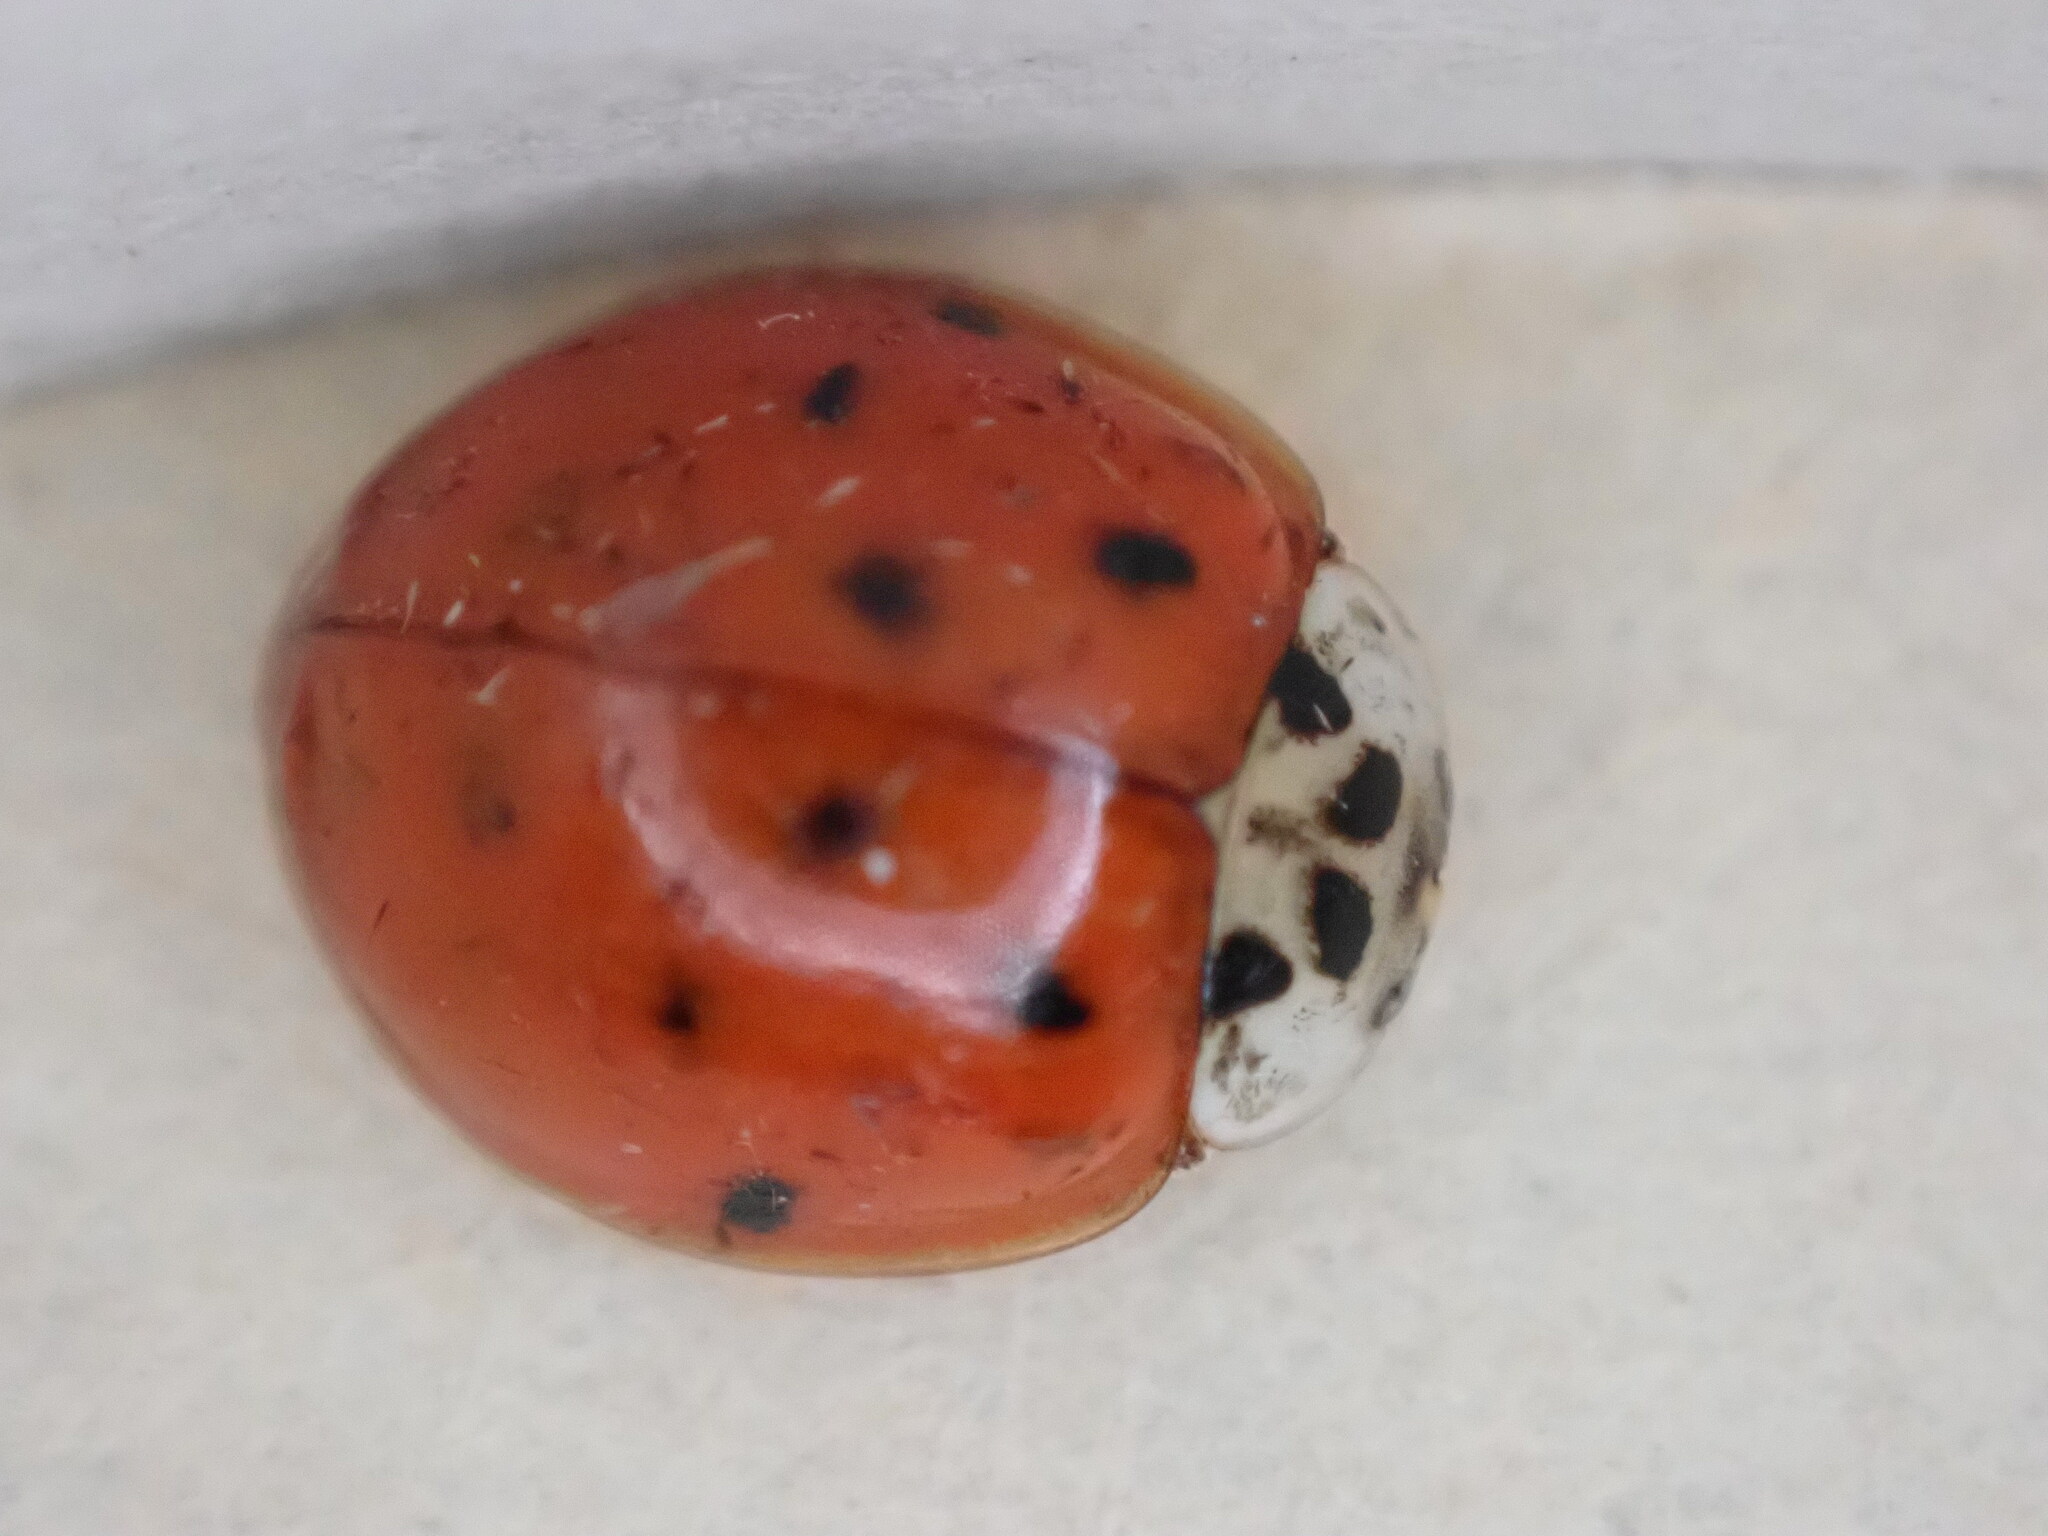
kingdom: Animalia
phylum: Arthropoda
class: Insecta
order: Coleoptera
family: Coccinellidae
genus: Harmonia
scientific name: Harmonia axyridis
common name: Harlequin ladybird
